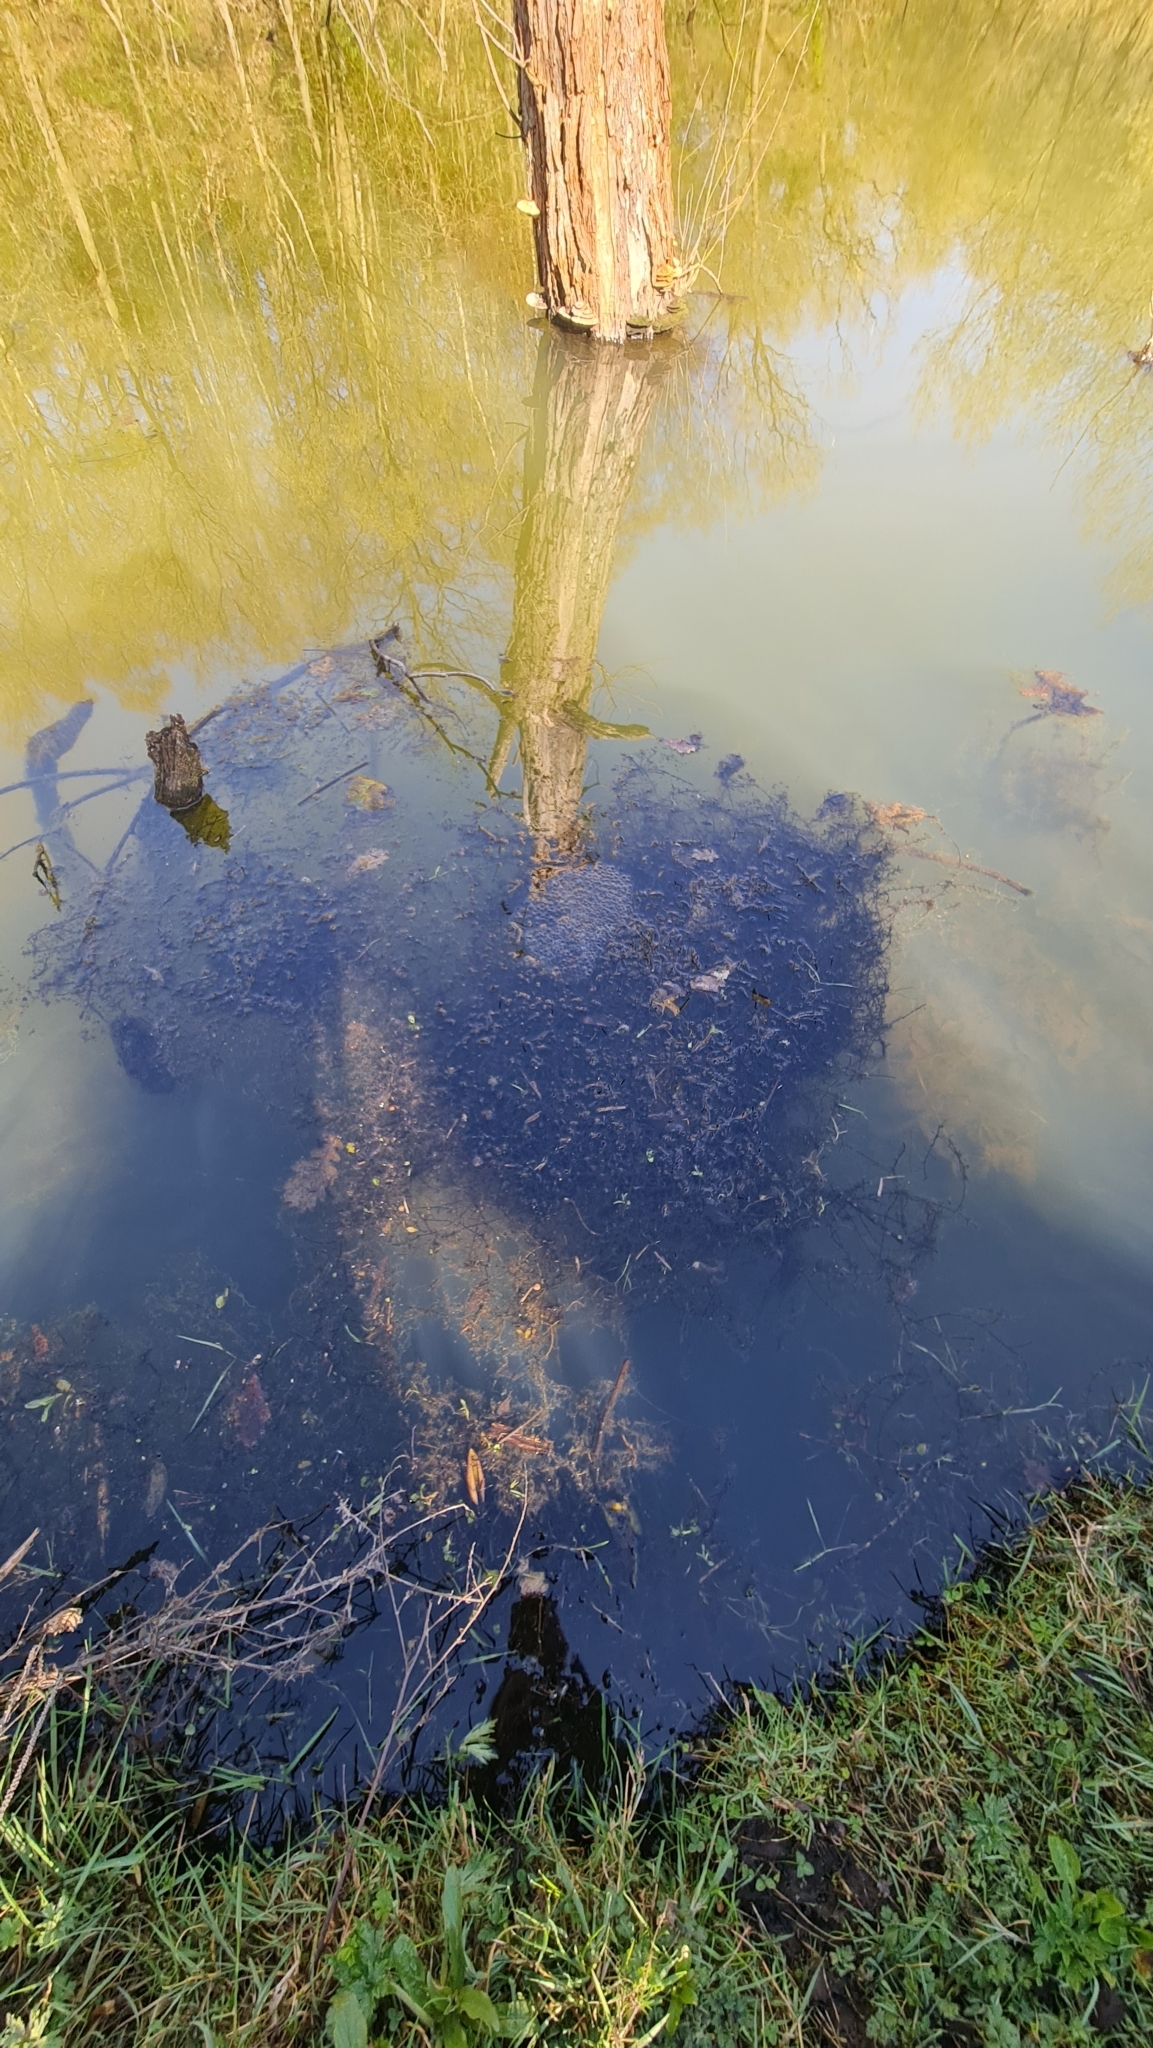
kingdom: Animalia
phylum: Chordata
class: Amphibia
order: Anura
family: Ranidae
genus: Rana
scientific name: Rana temporaria
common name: Common frog
